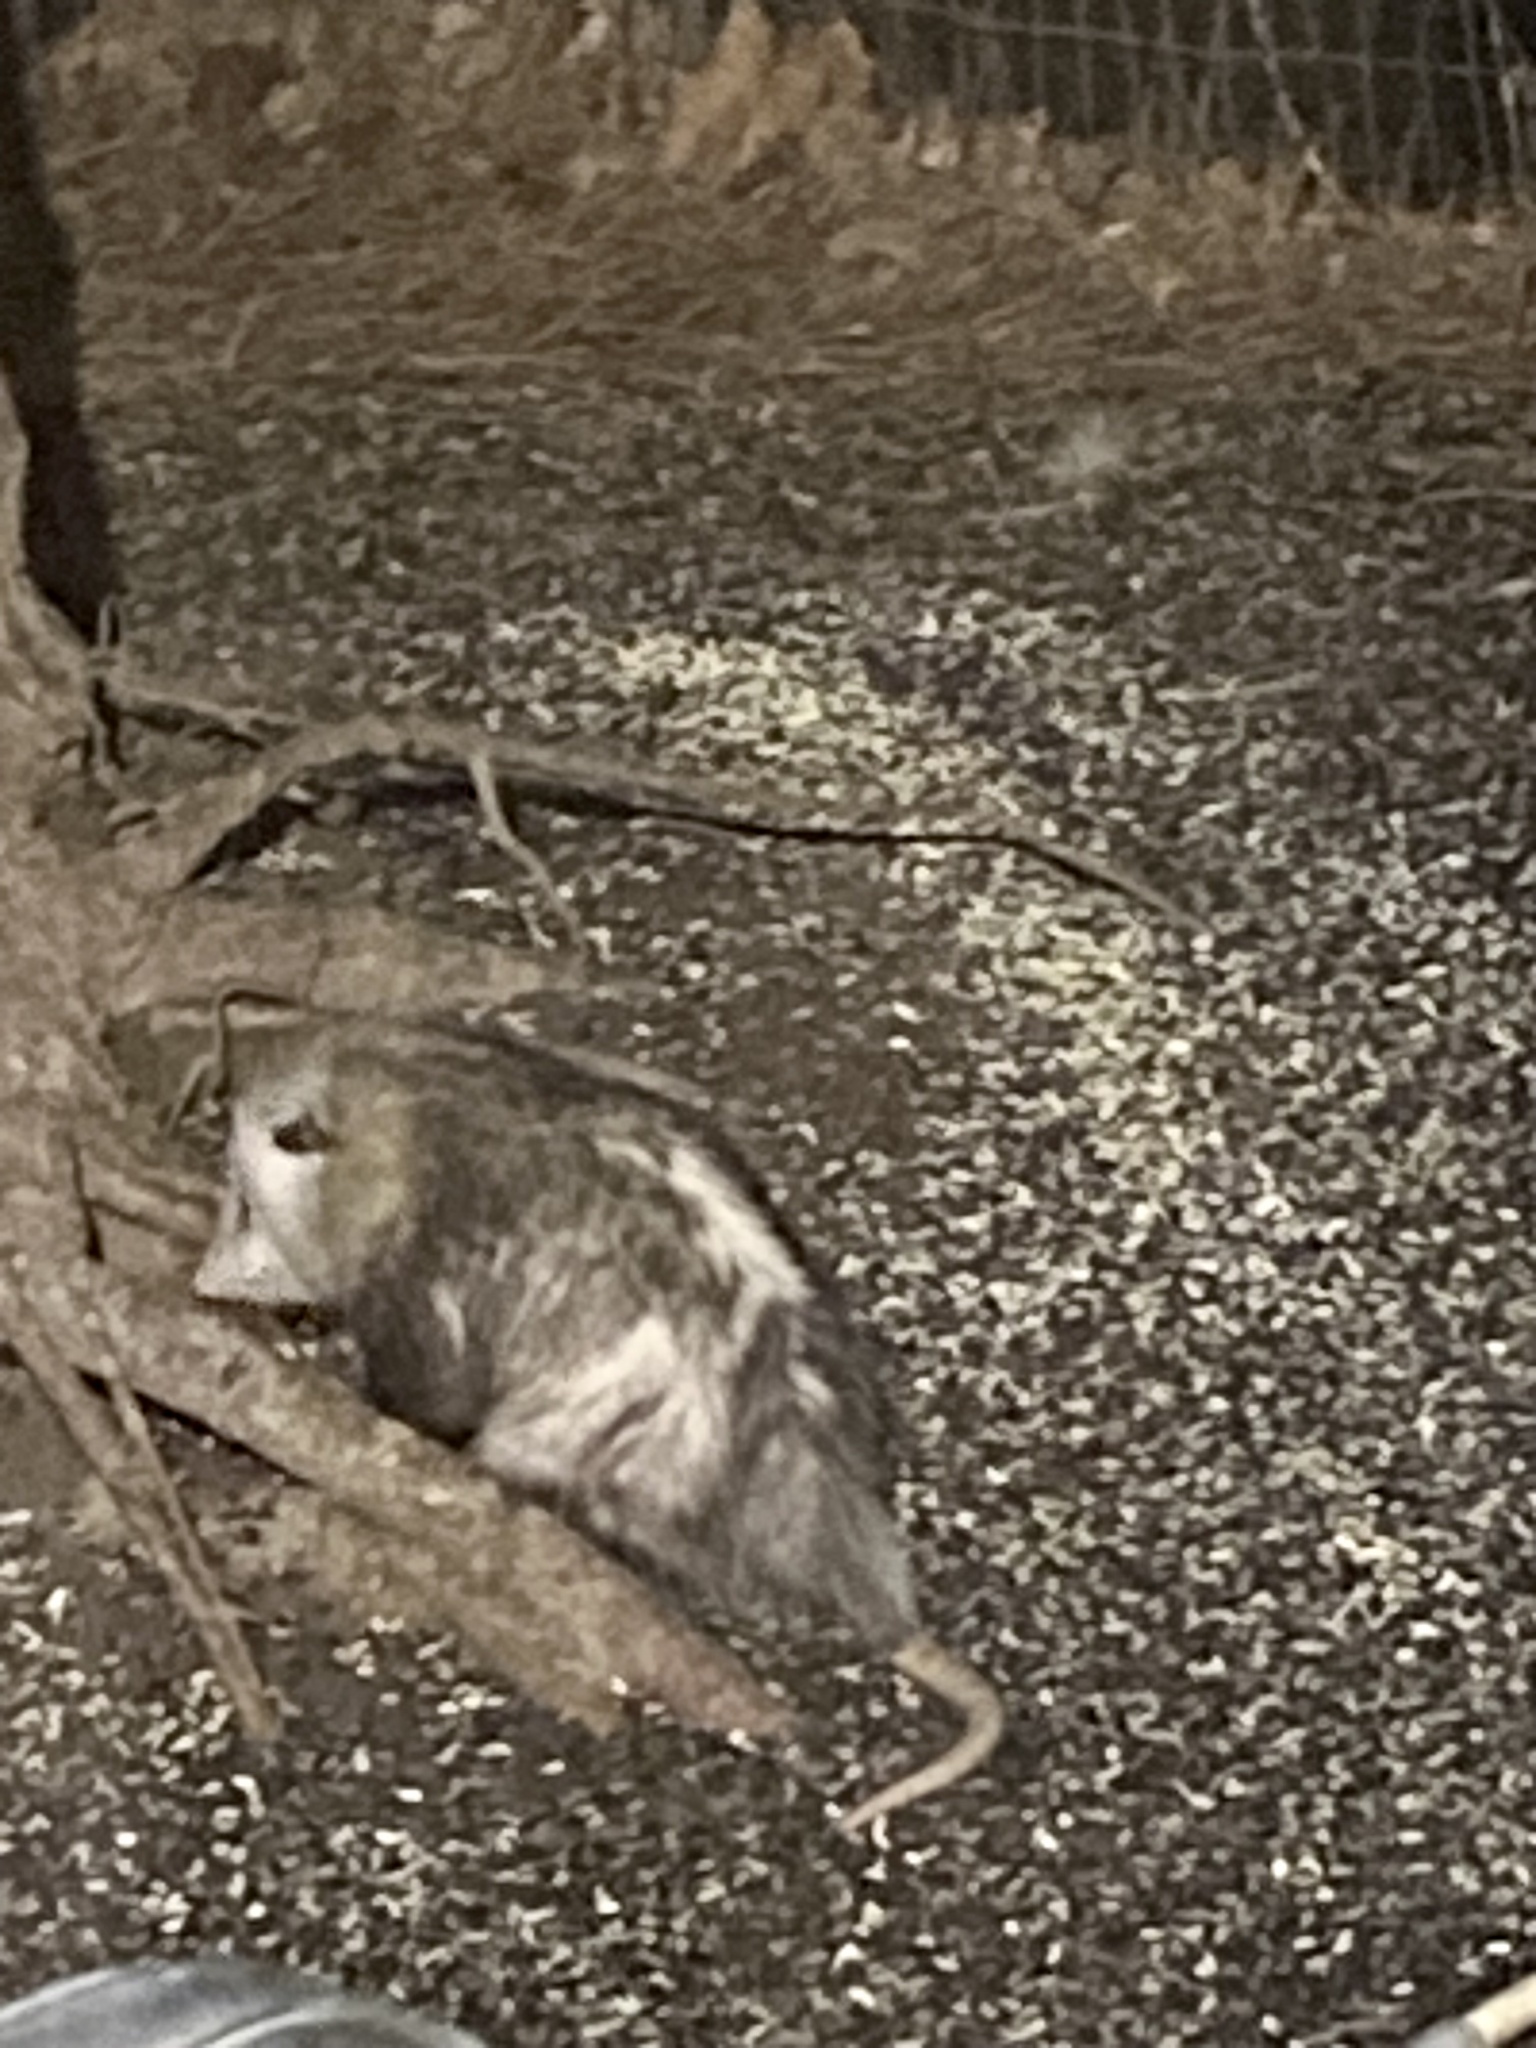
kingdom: Animalia
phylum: Chordata
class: Mammalia
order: Didelphimorphia
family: Didelphidae
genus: Didelphis
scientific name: Didelphis virginiana
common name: Virginia opossum
